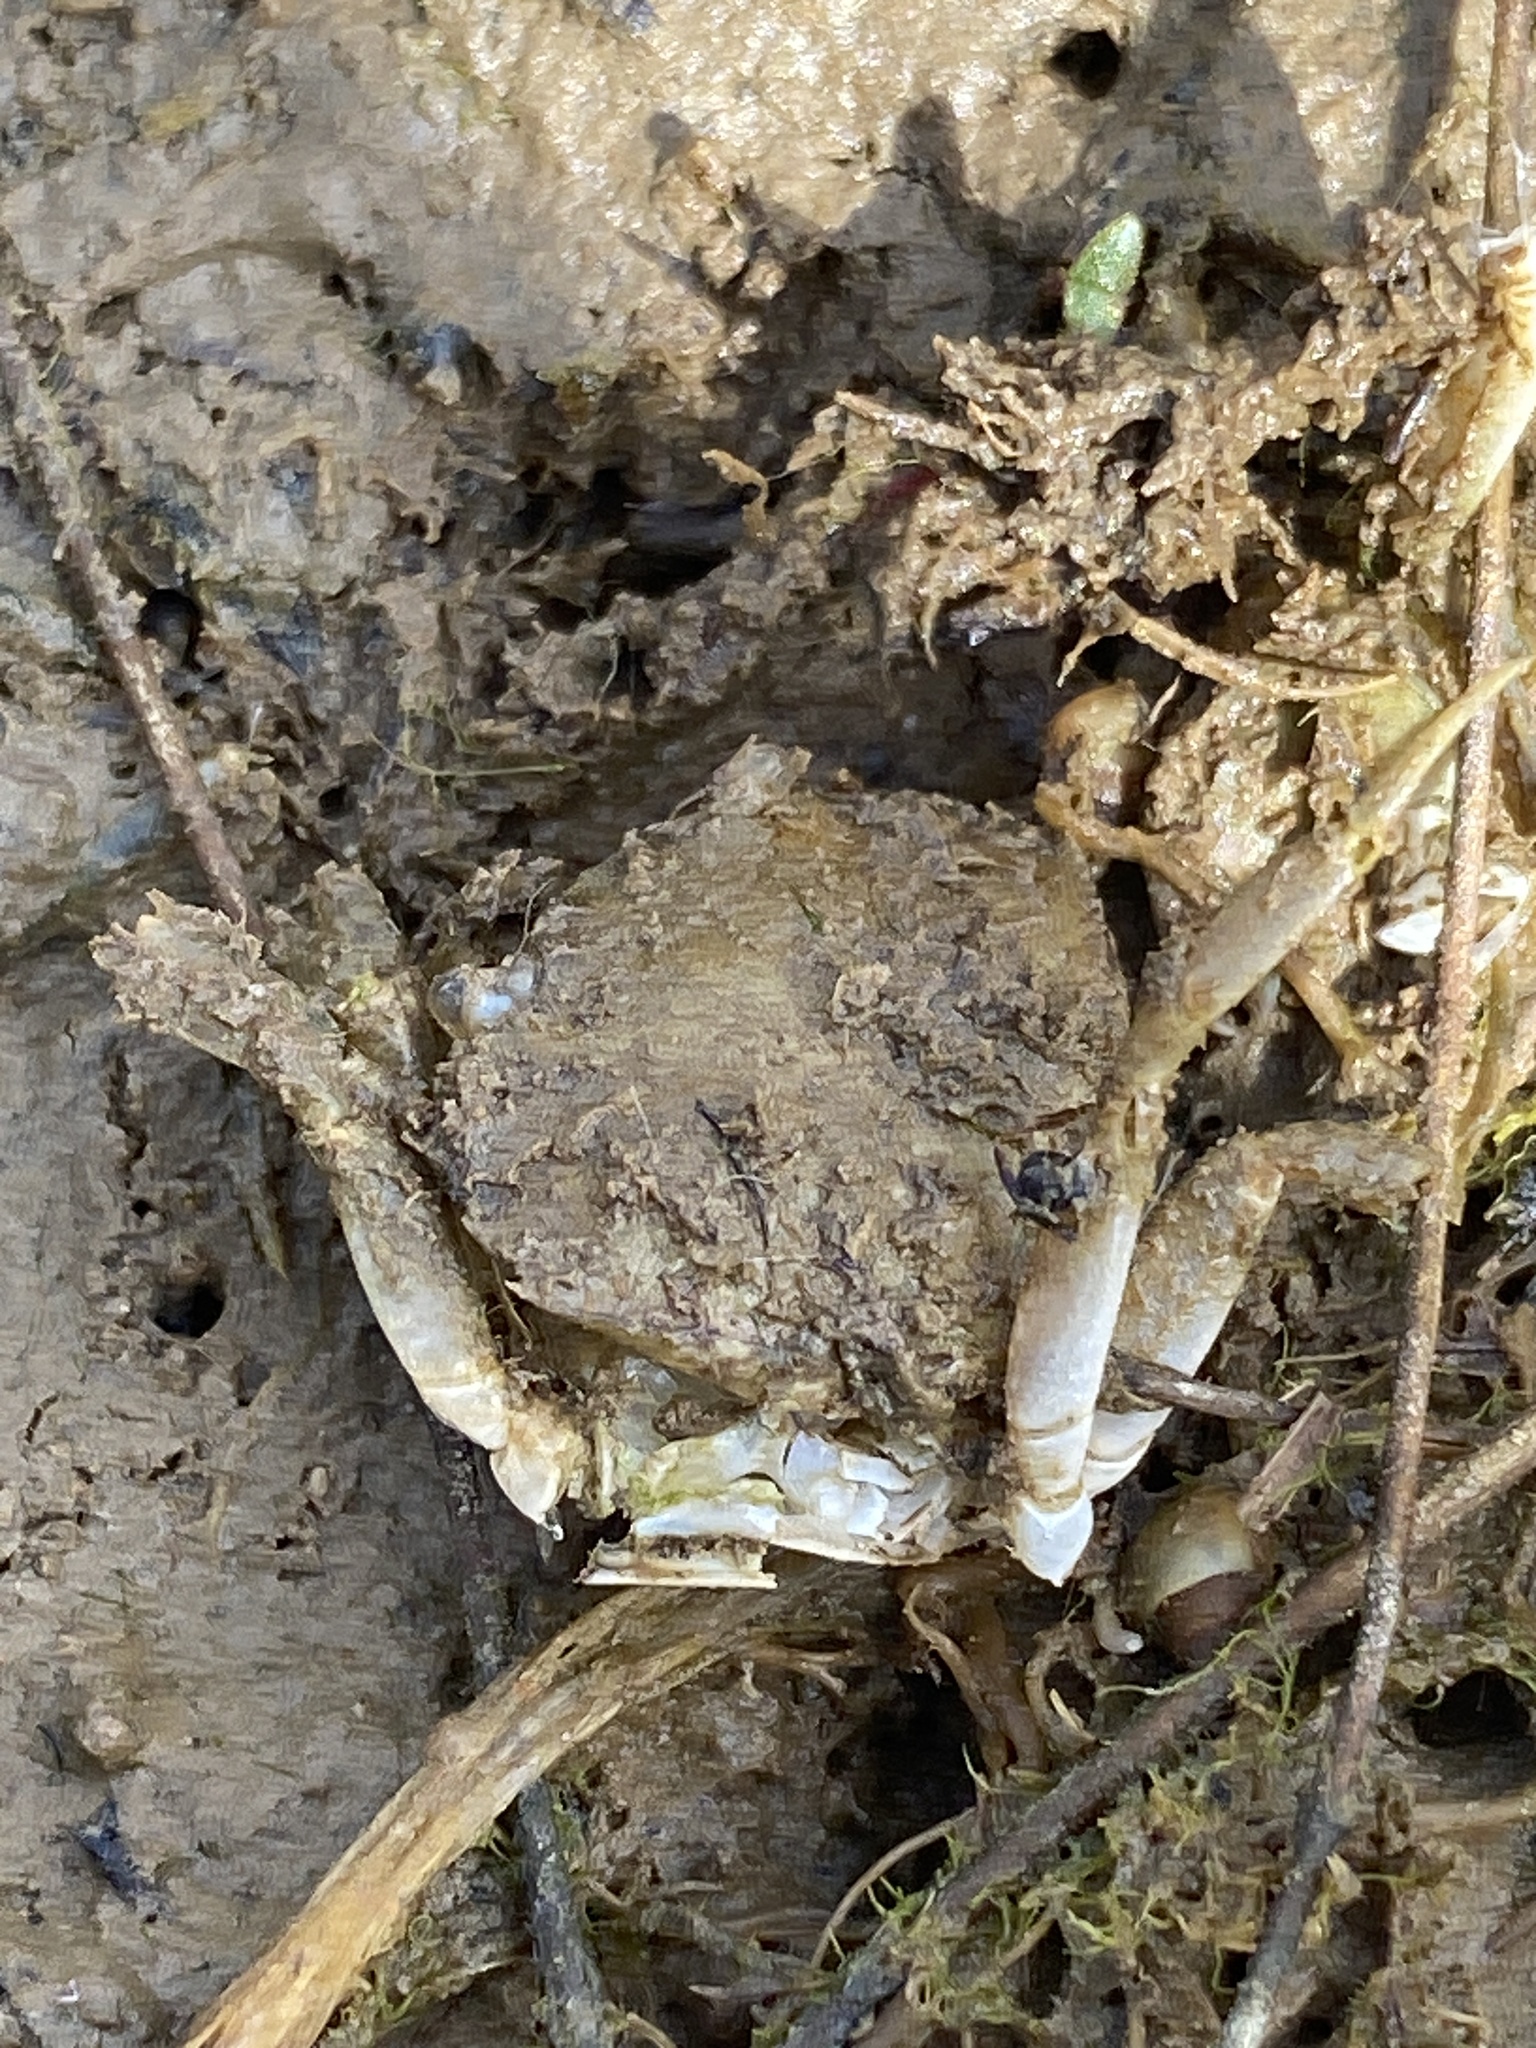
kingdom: Animalia
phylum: Arthropoda
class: Malacostraca
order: Decapoda
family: Carcinidae
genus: Carcinus
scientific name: Carcinus maenas
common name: European green crab
